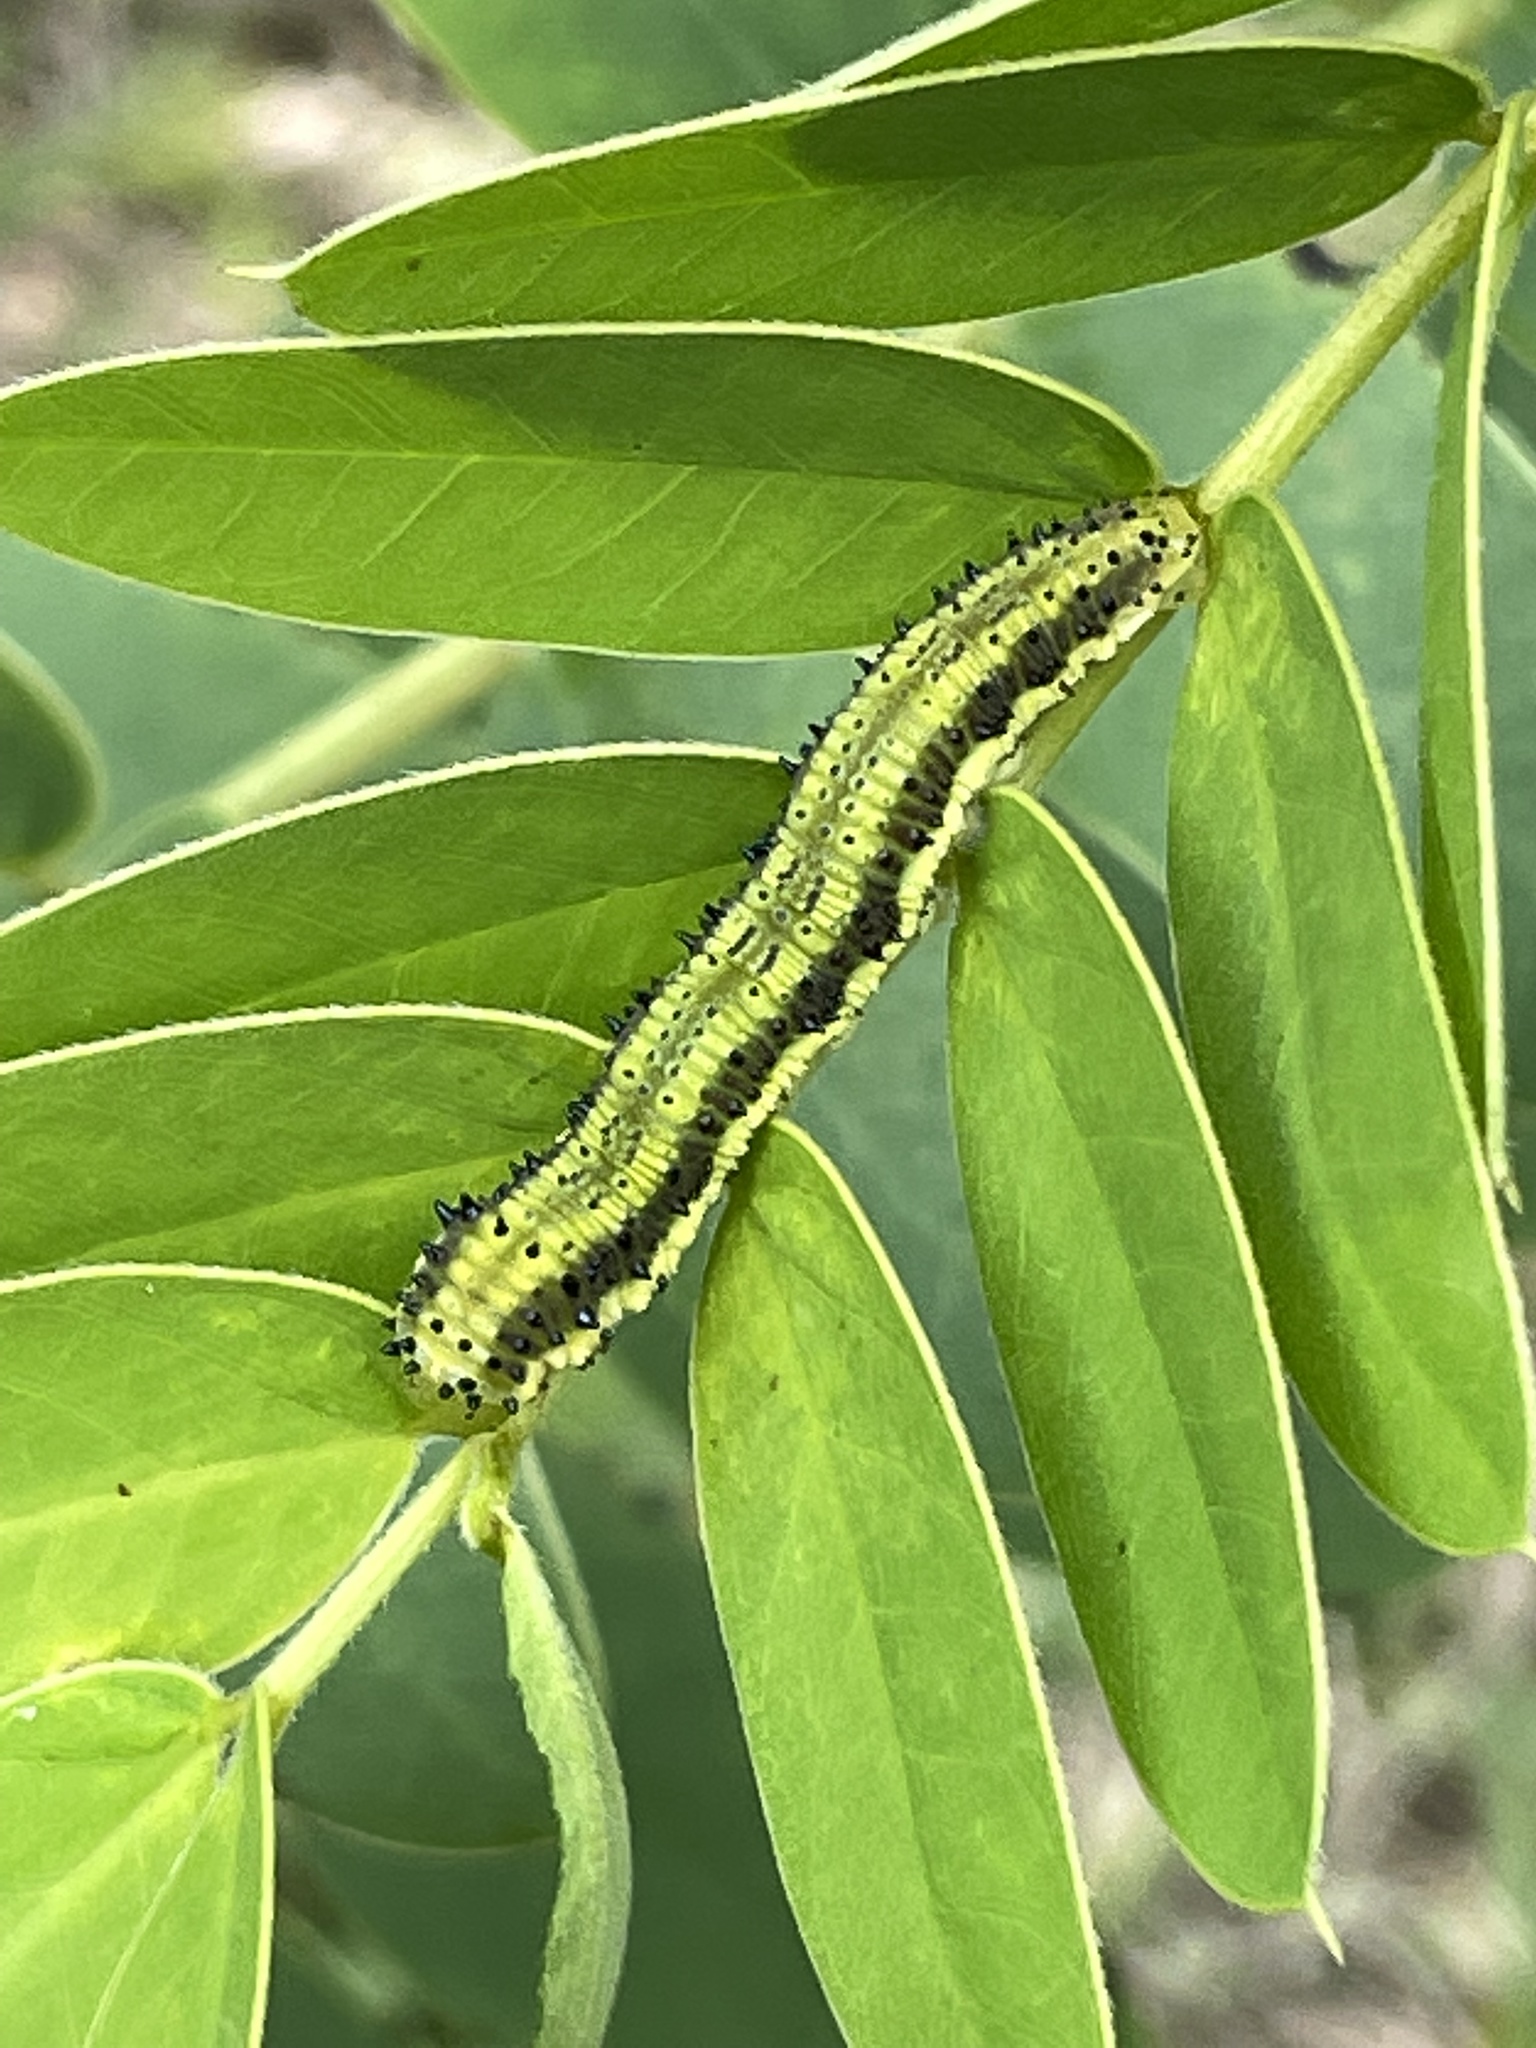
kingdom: Animalia
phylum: Arthropoda
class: Insecta
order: Lepidoptera
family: Pieridae
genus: Phoebis
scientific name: Phoebis philea
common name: Orange-barred giant sulphur
